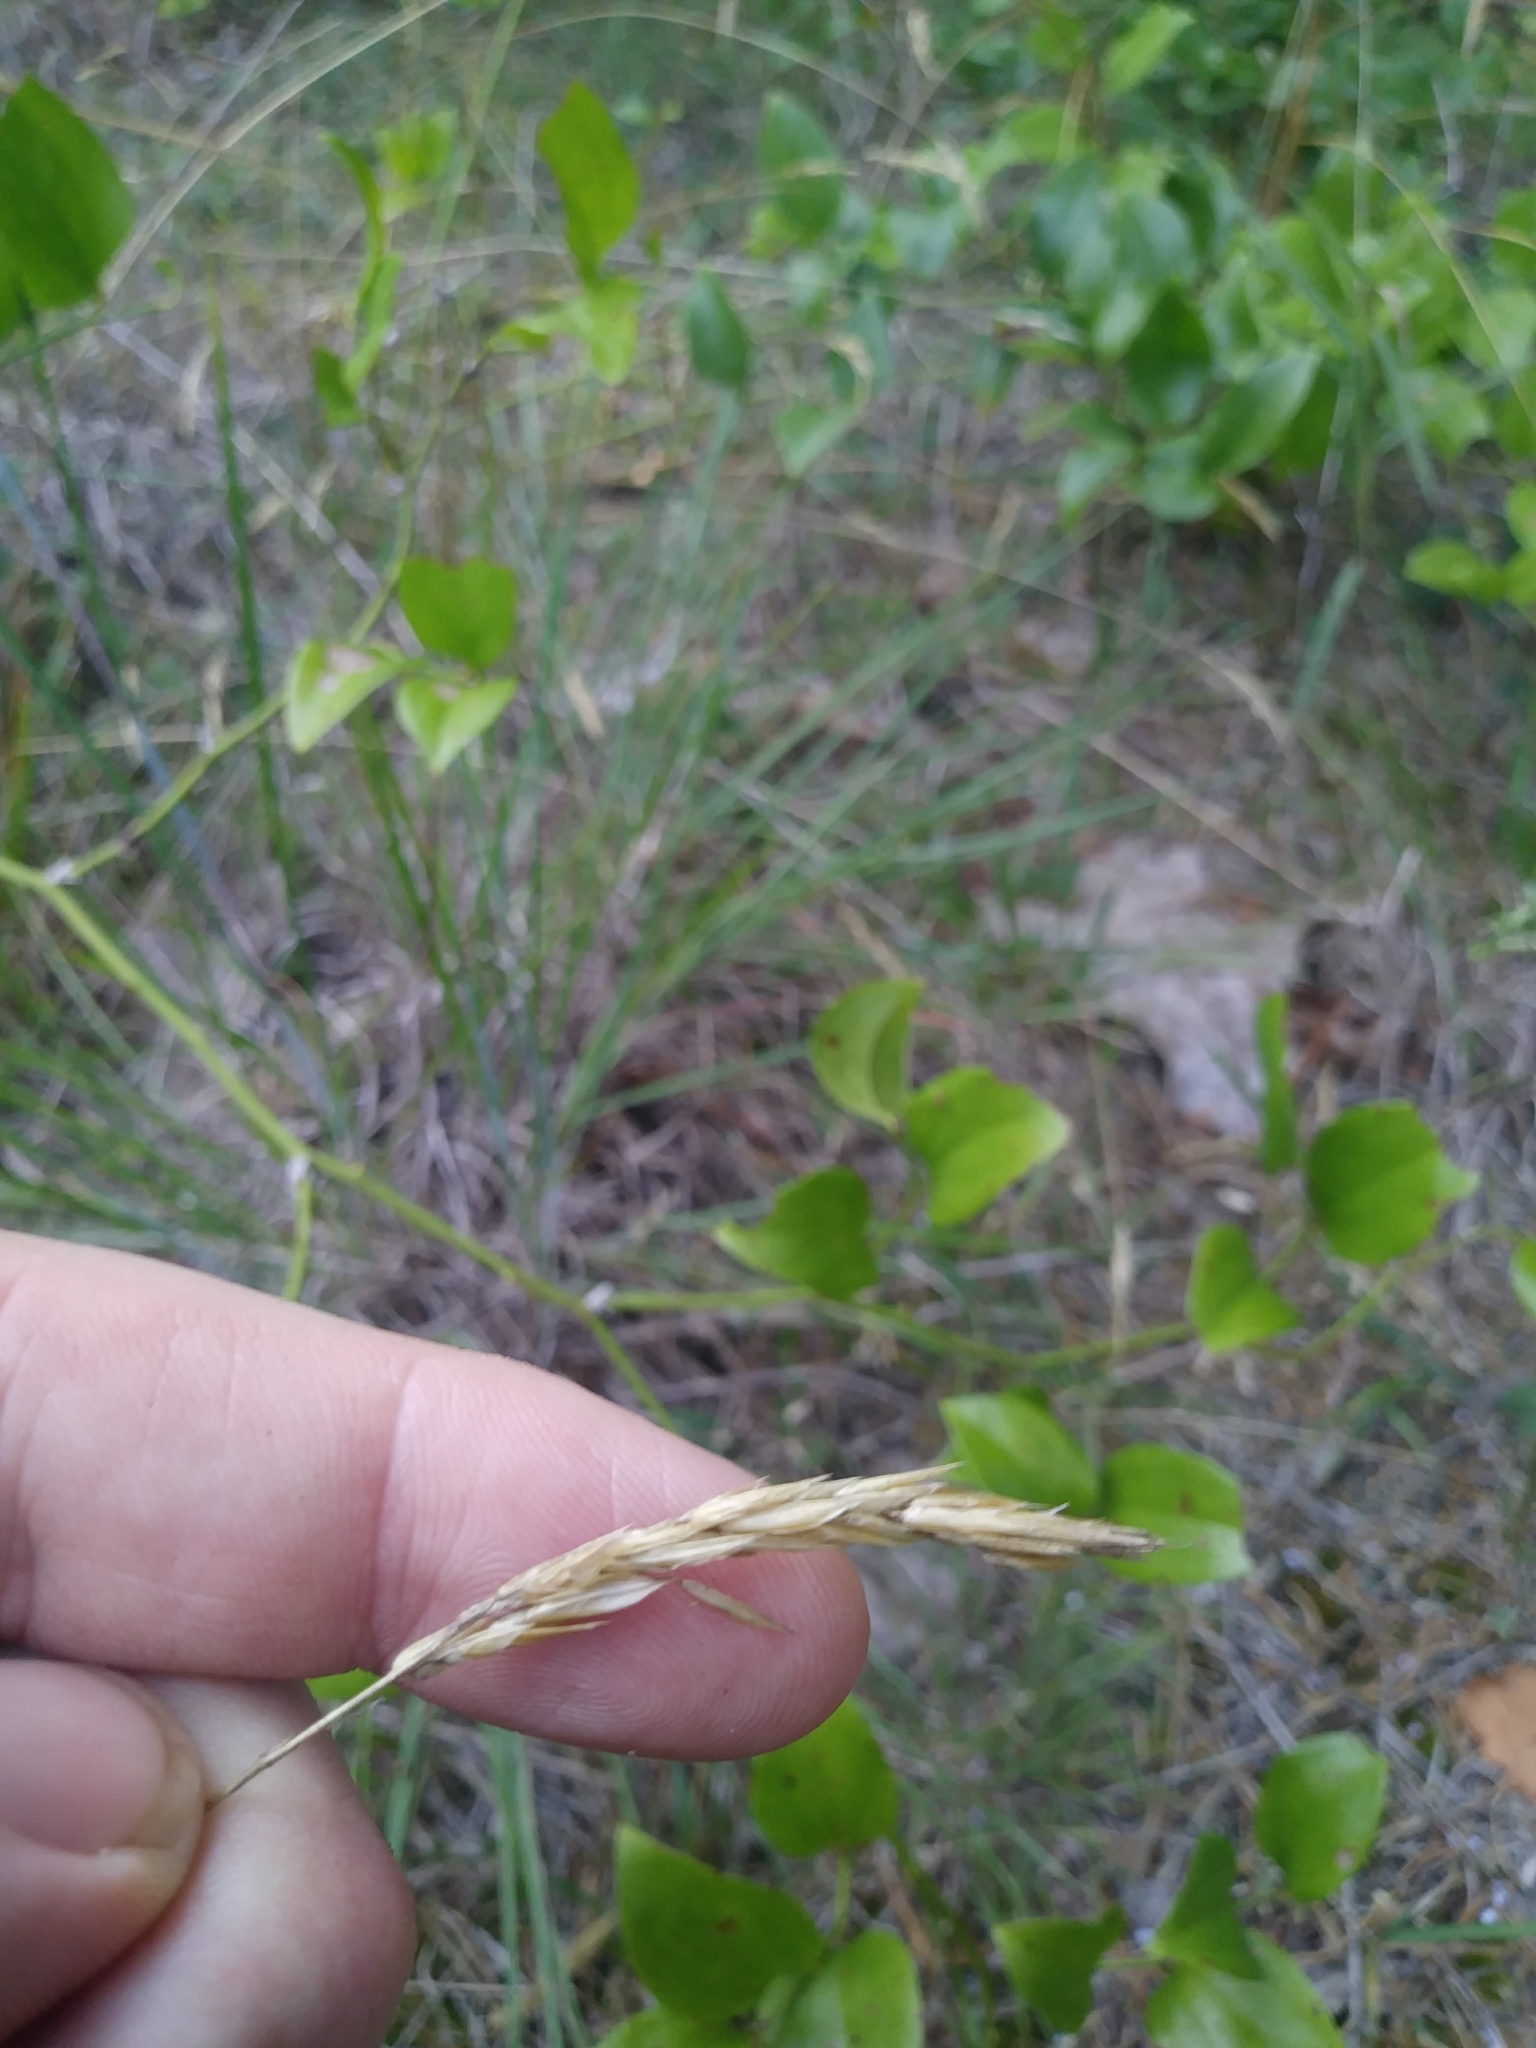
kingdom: Plantae
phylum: Tracheophyta
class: Liliopsida
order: Poales
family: Poaceae
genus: Anthoxanthum
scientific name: Anthoxanthum odoratum
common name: Sweet vernalgrass
